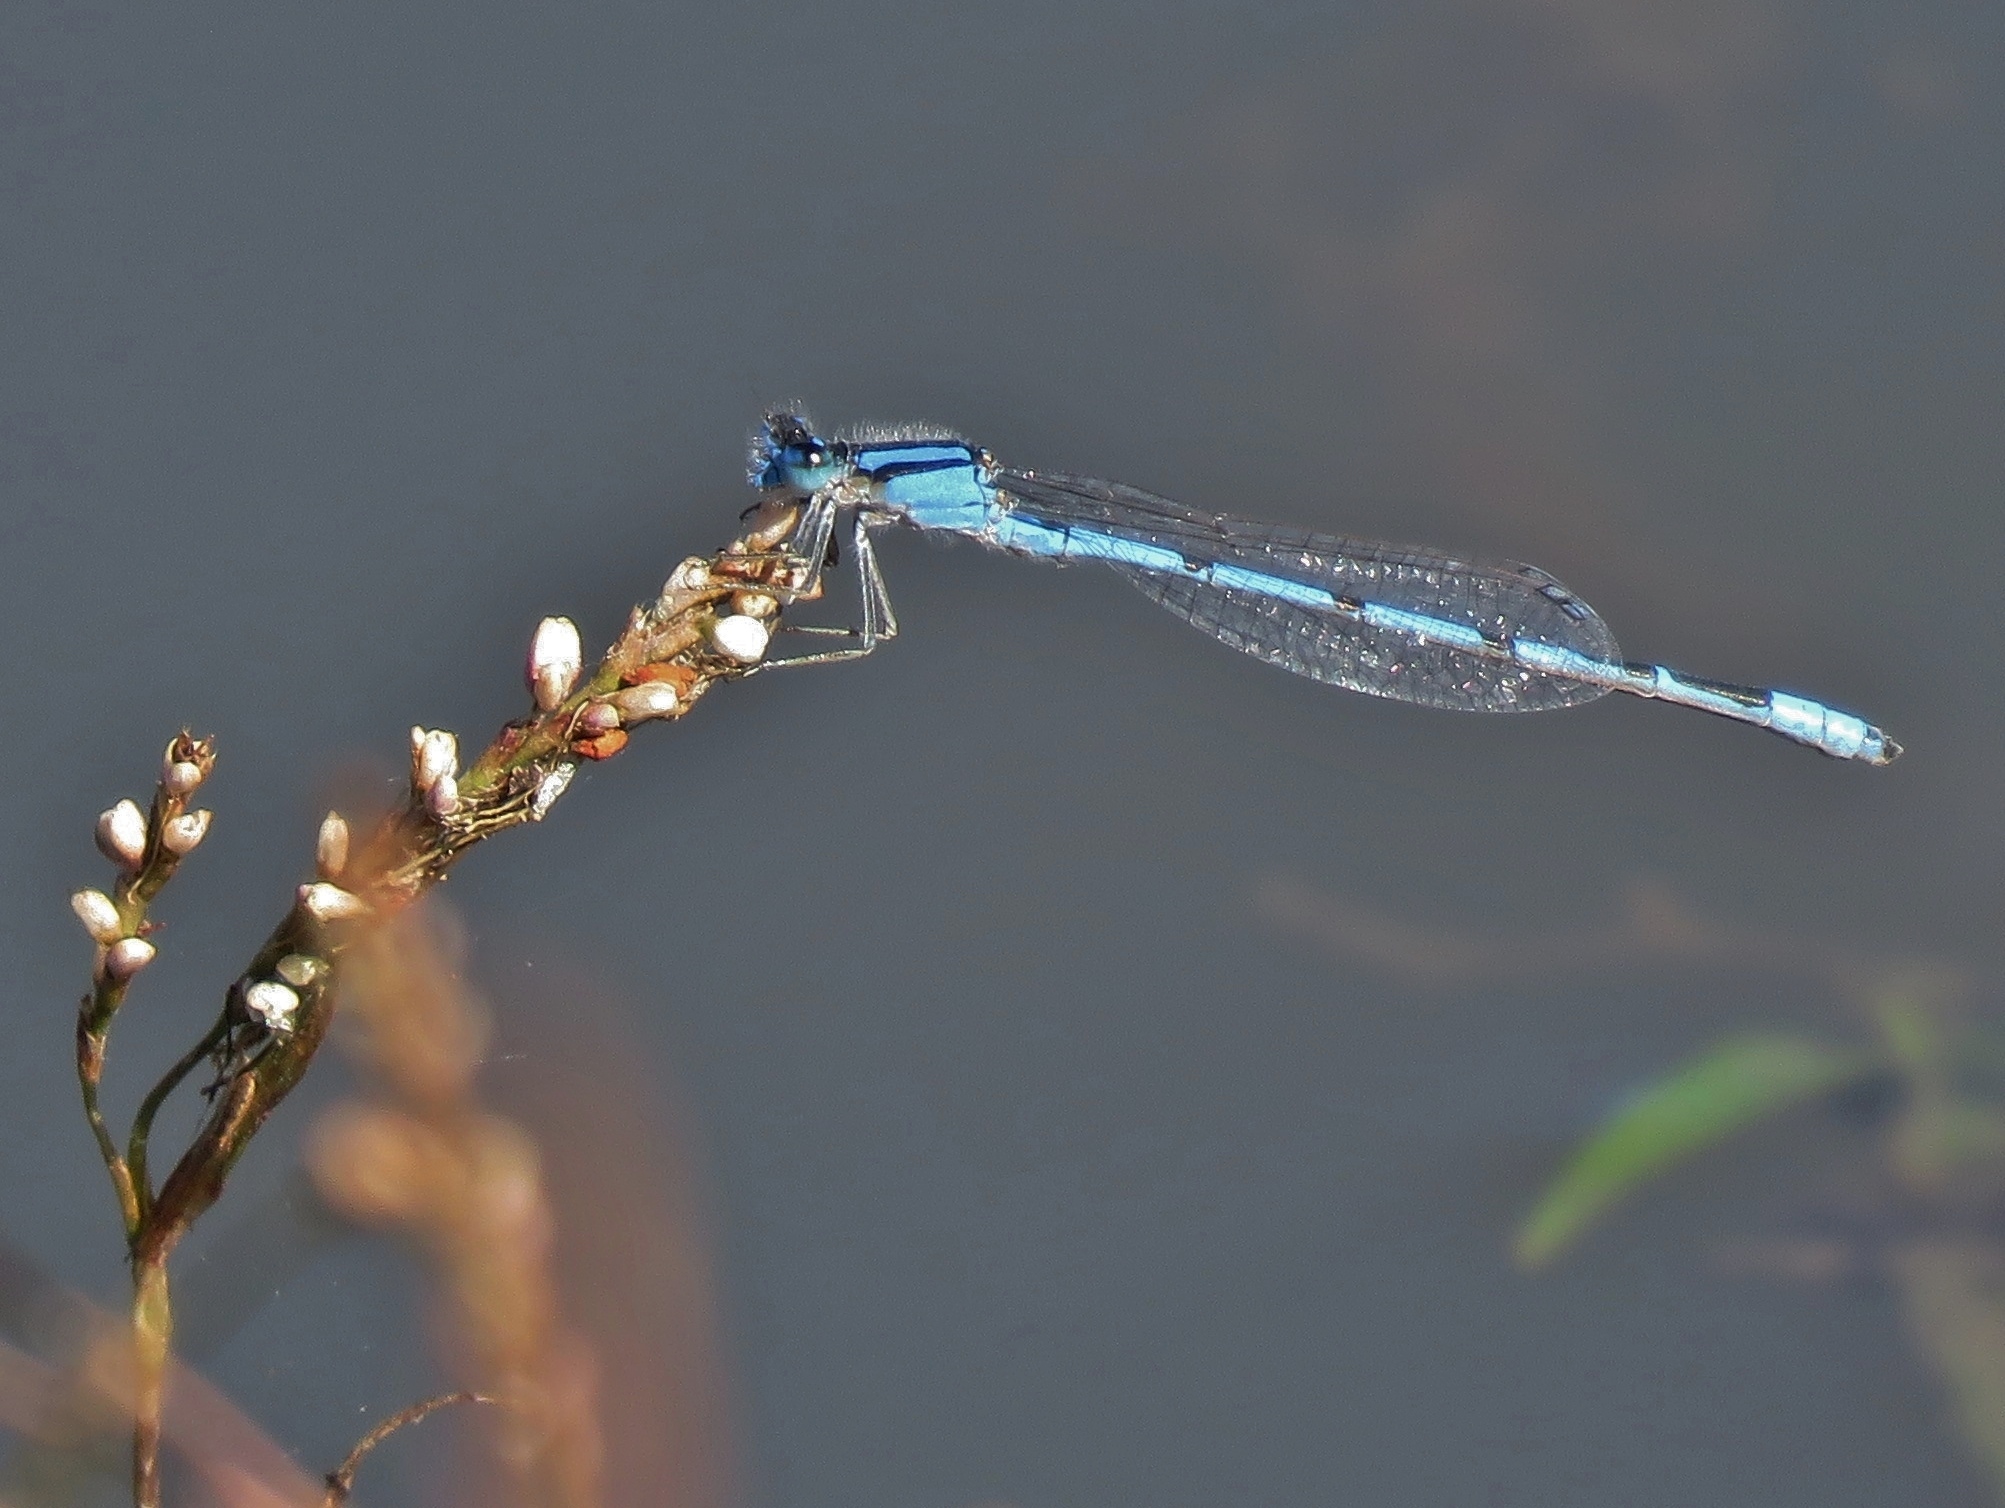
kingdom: Animalia
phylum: Arthropoda
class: Insecta
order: Odonata
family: Coenagrionidae
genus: Enallagma
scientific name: Enallagma civile
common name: Damselfly
